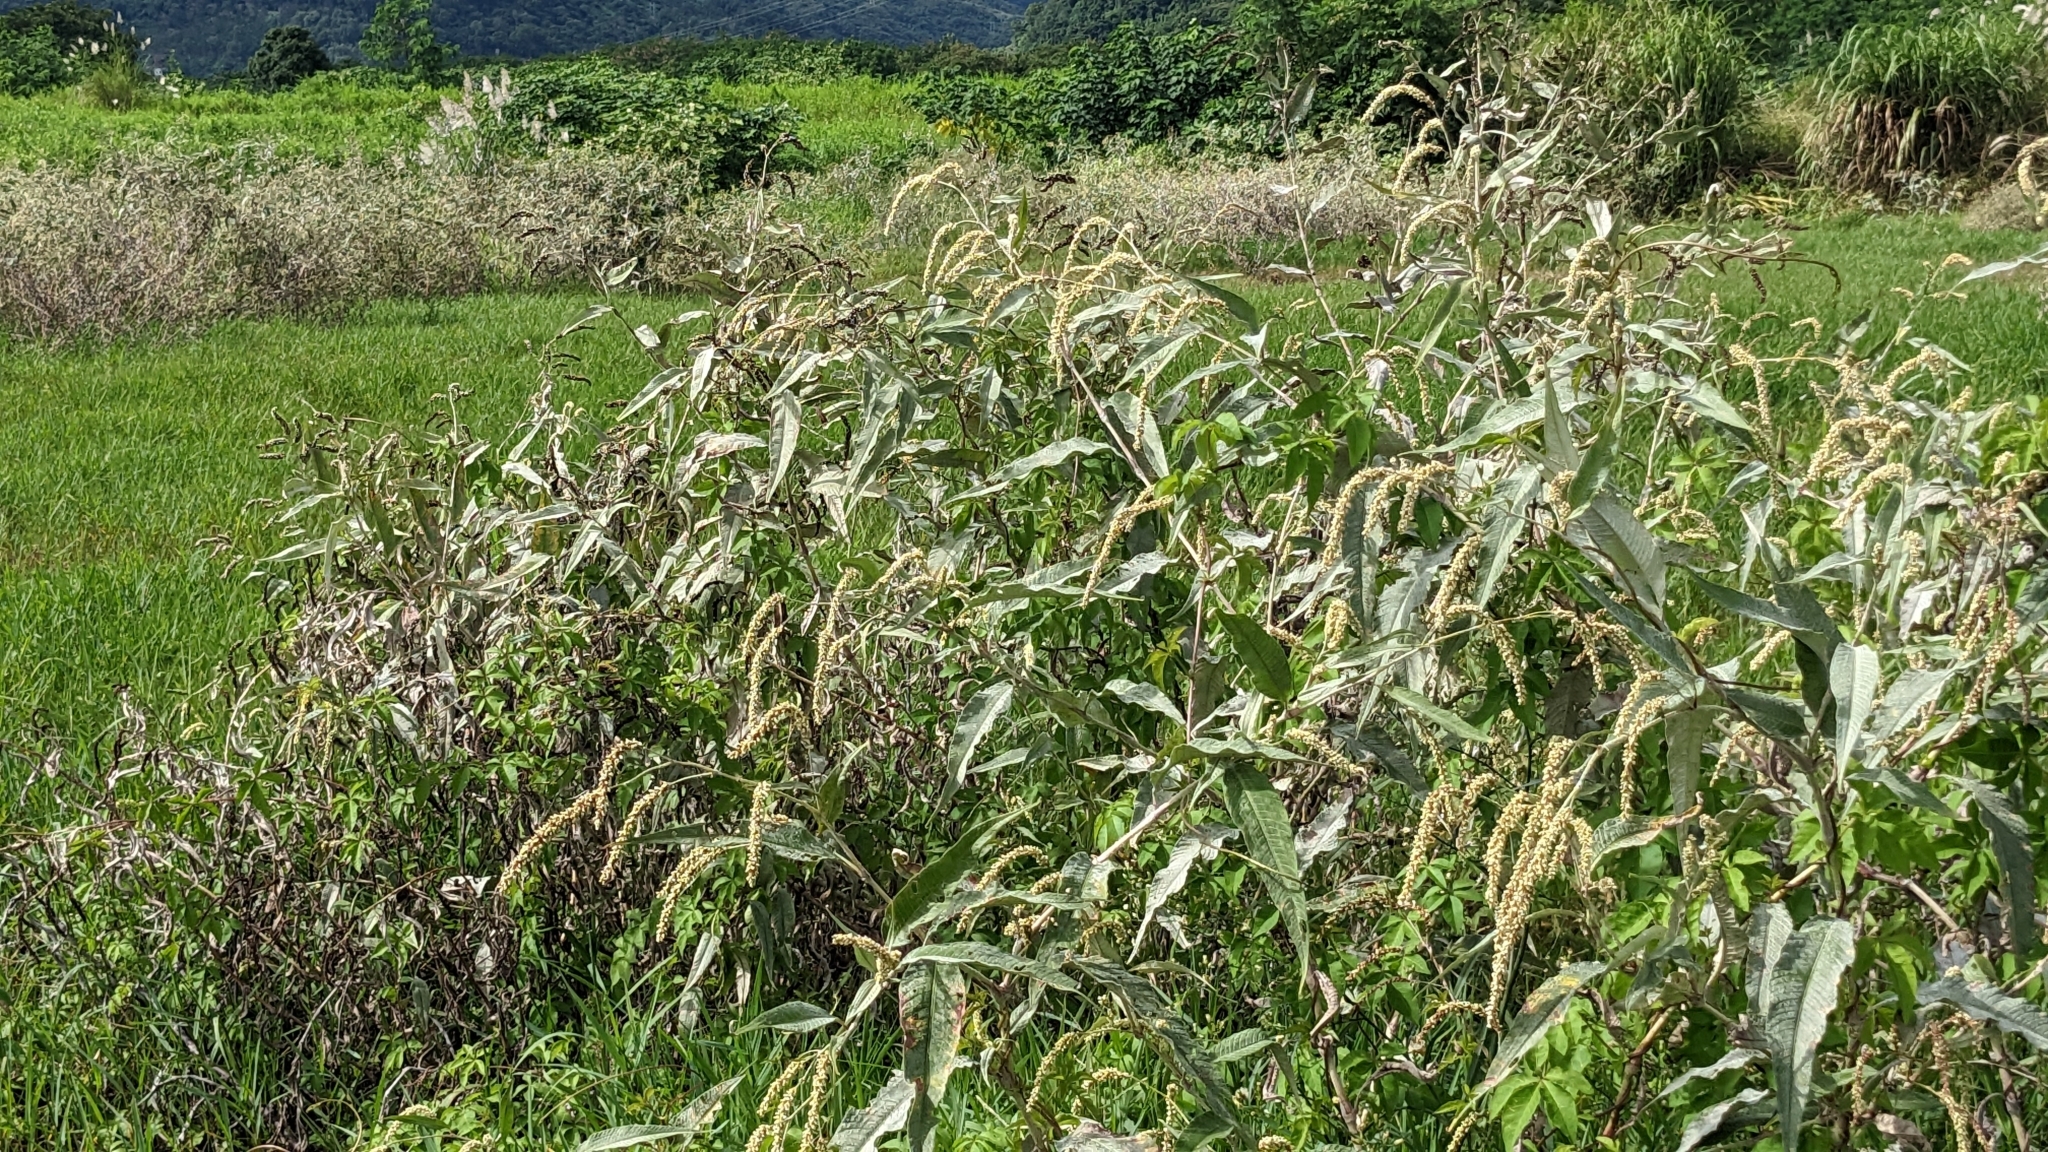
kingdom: Plantae
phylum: Tracheophyta
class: Magnoliopsida
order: Caryophyllales
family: Polygonaceae
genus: Persicaria
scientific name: Persicaria lanata
